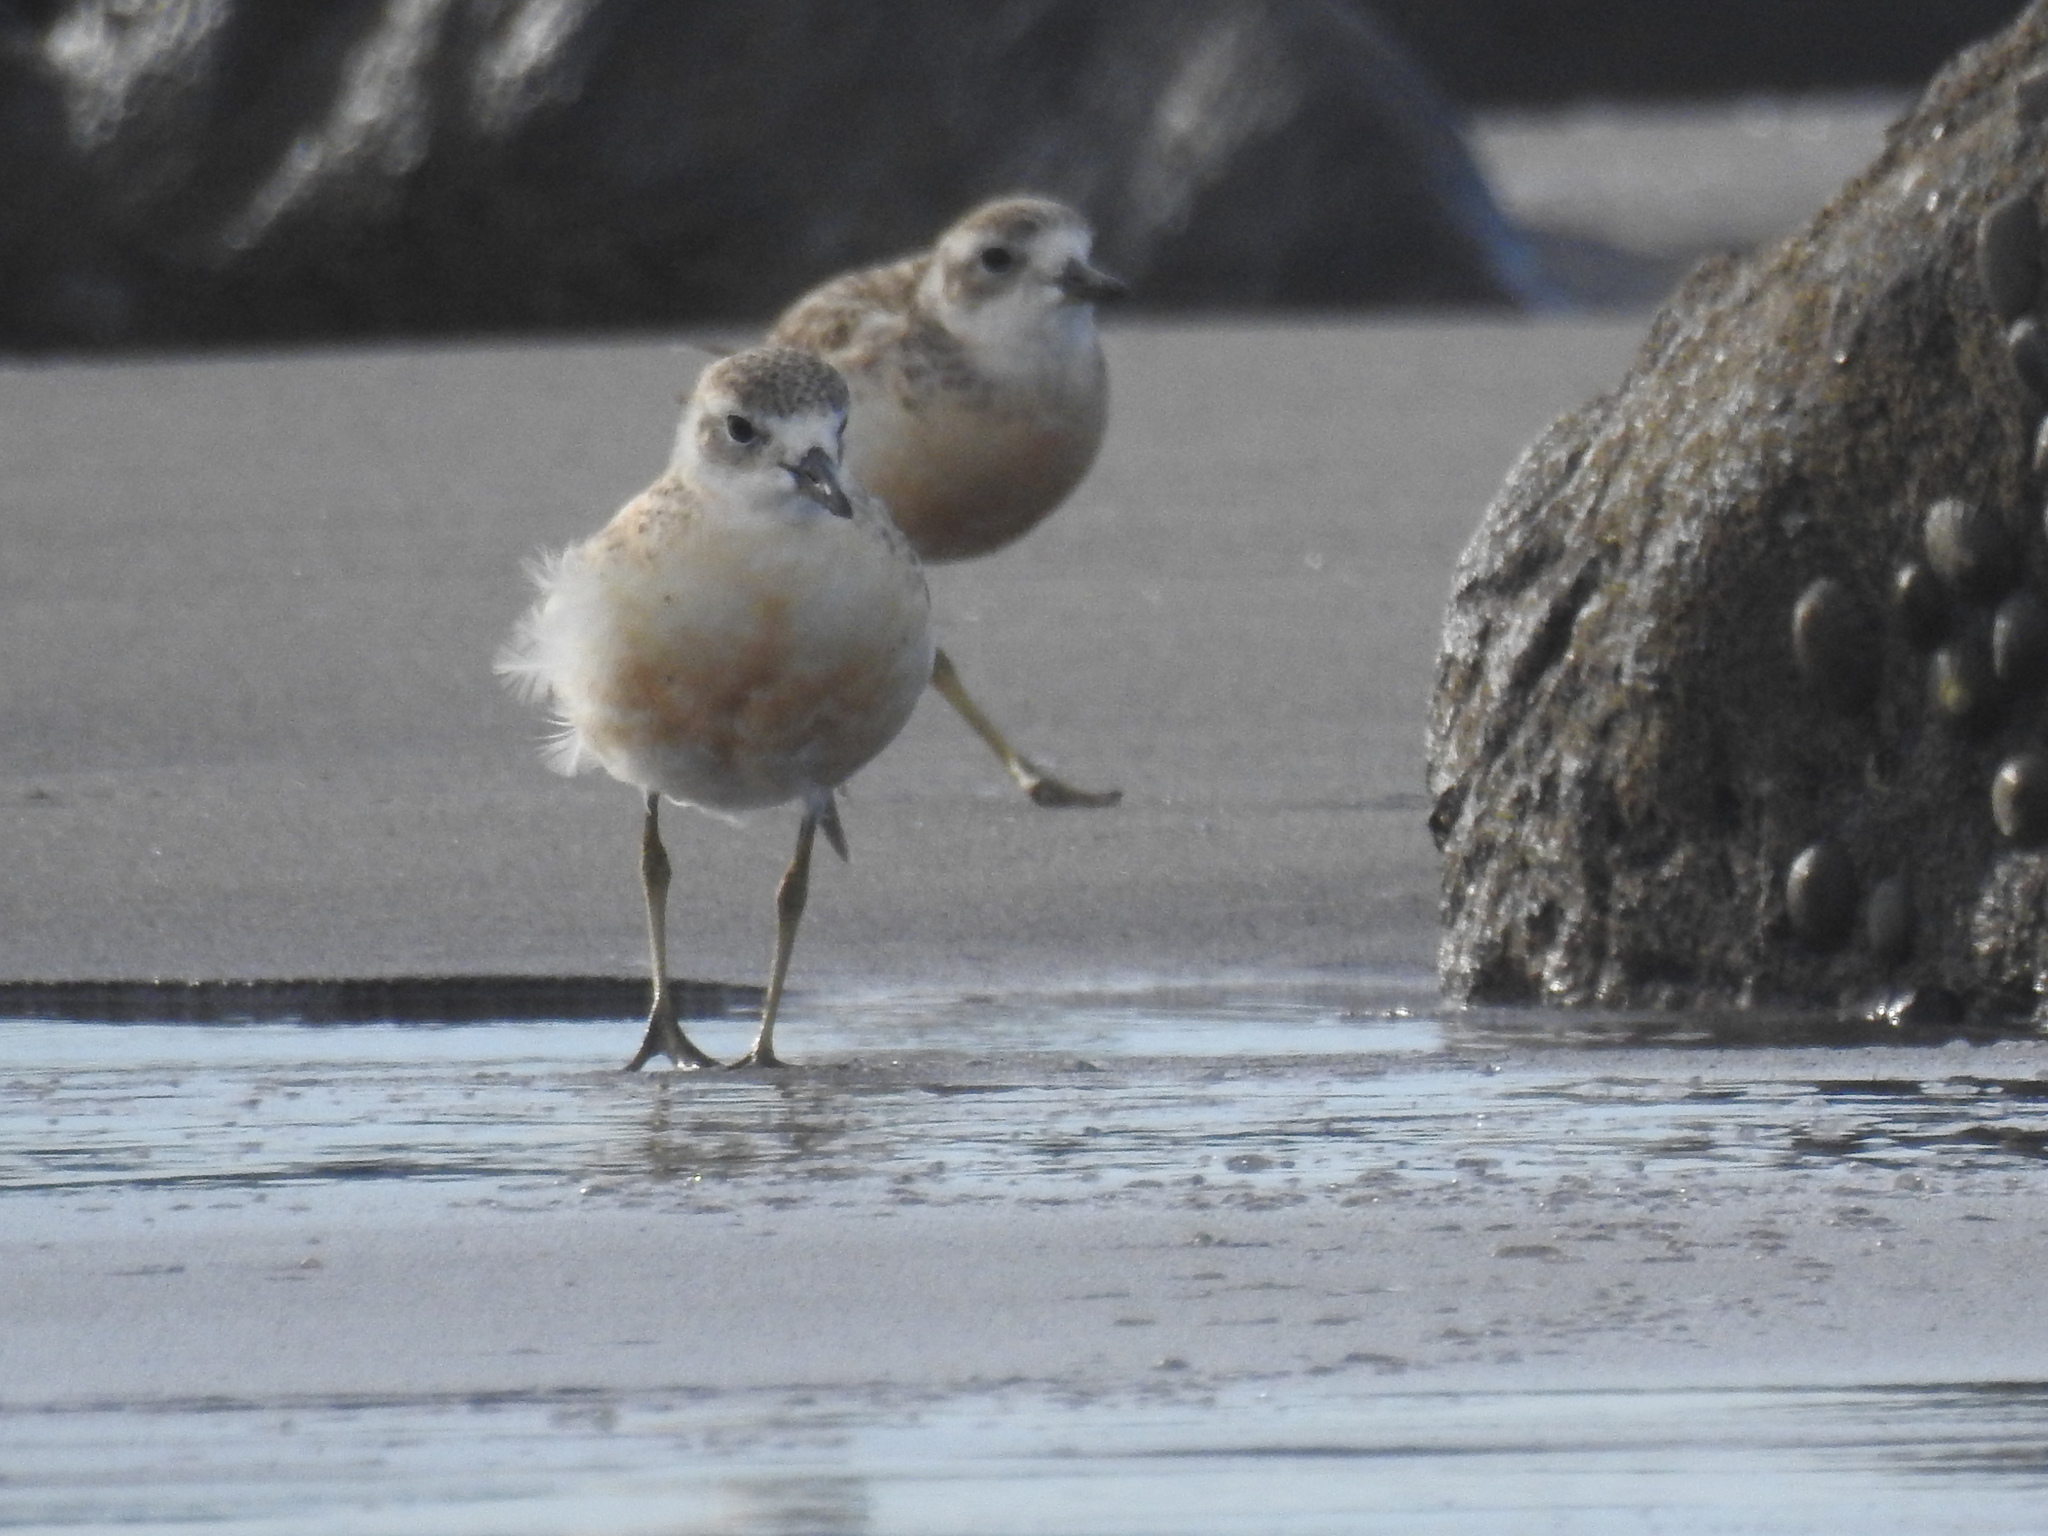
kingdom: Animalia
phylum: Chordata
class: Aves
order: Charadriiformes
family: Charadriidae
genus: Anarhynchus
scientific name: Anarhynchus
